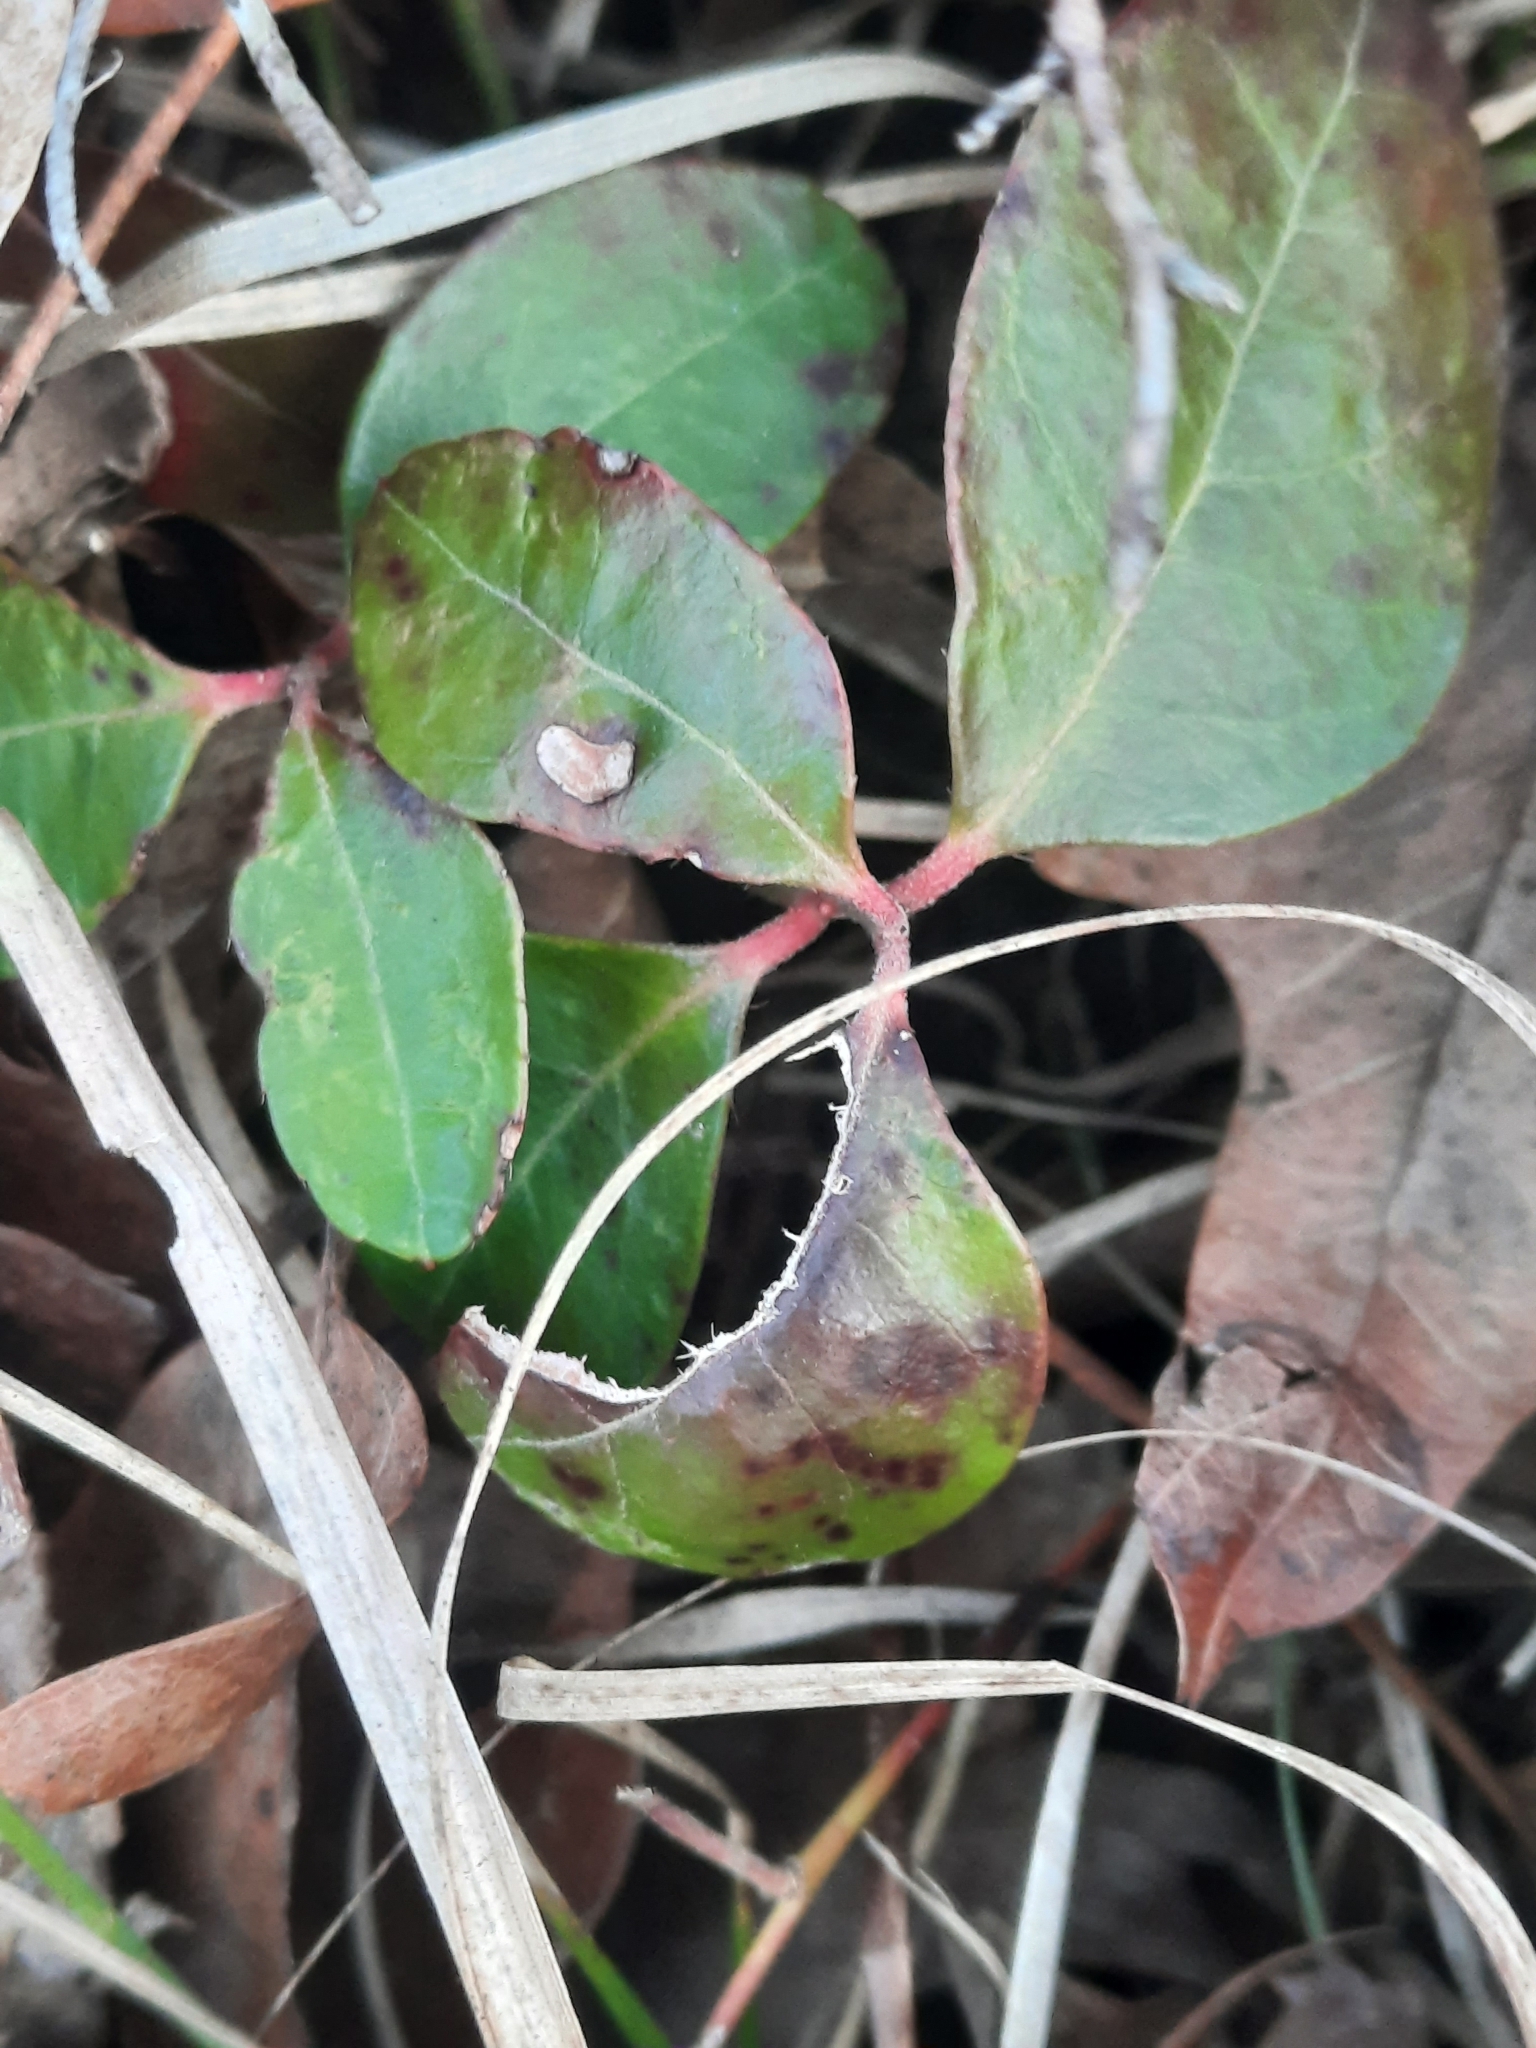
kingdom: Plantae
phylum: Tracheophyta
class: Magnoliopsida
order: Ericales
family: Ericaceae
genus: Gaultheria
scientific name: Gaultheria procumbens
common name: Checkerberry
